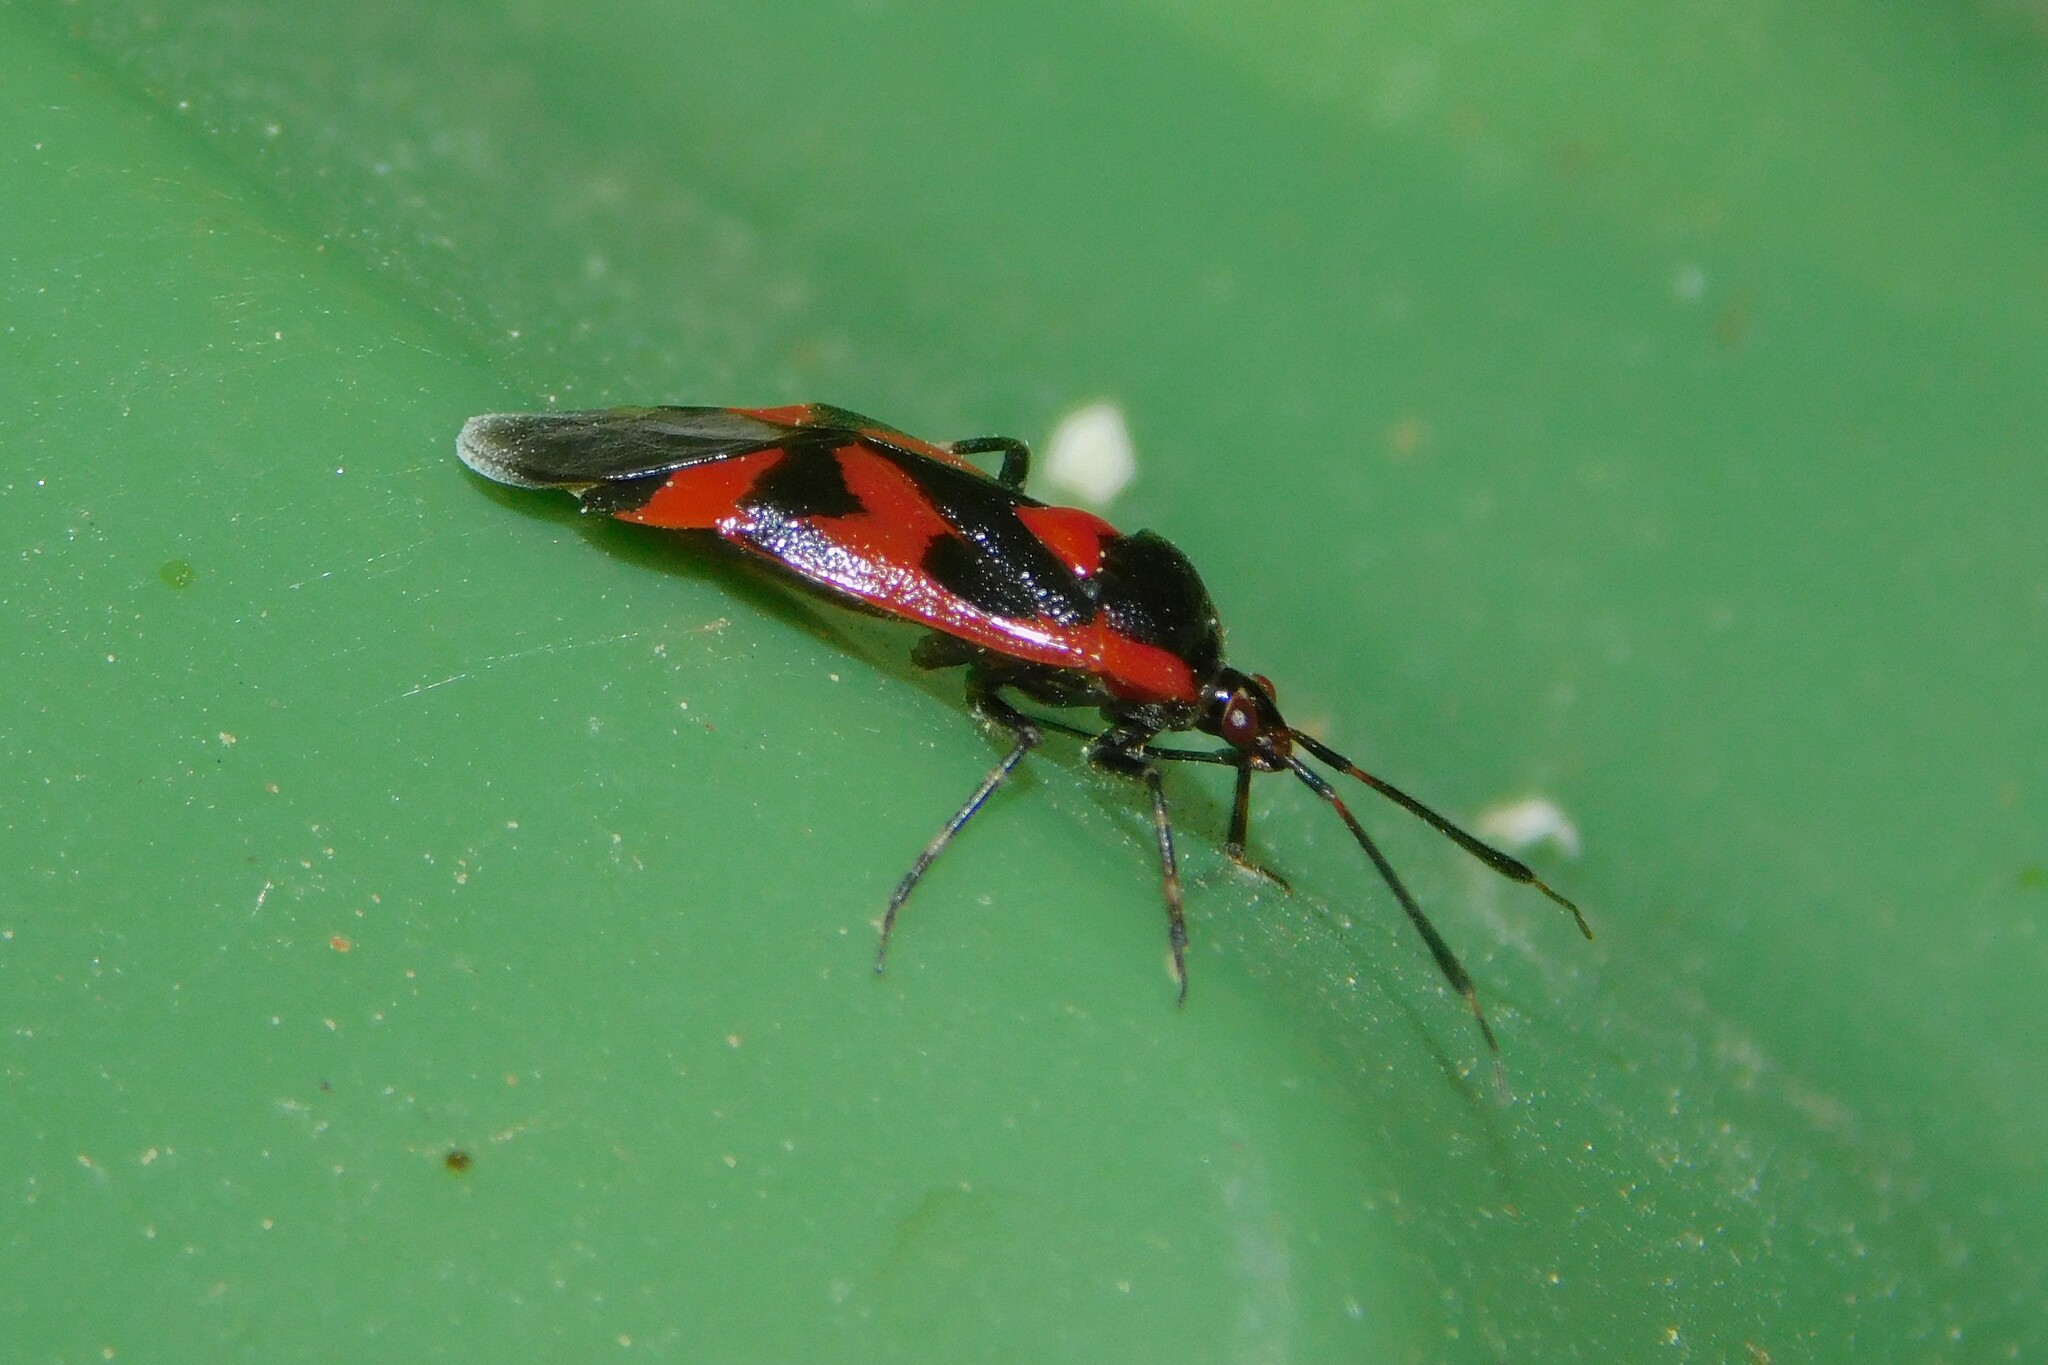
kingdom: Animalia
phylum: Arthropoda
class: Insecta
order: Hemiptera
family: Miridae
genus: Deraeocoris
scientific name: Deraeocoris trifasciatus
